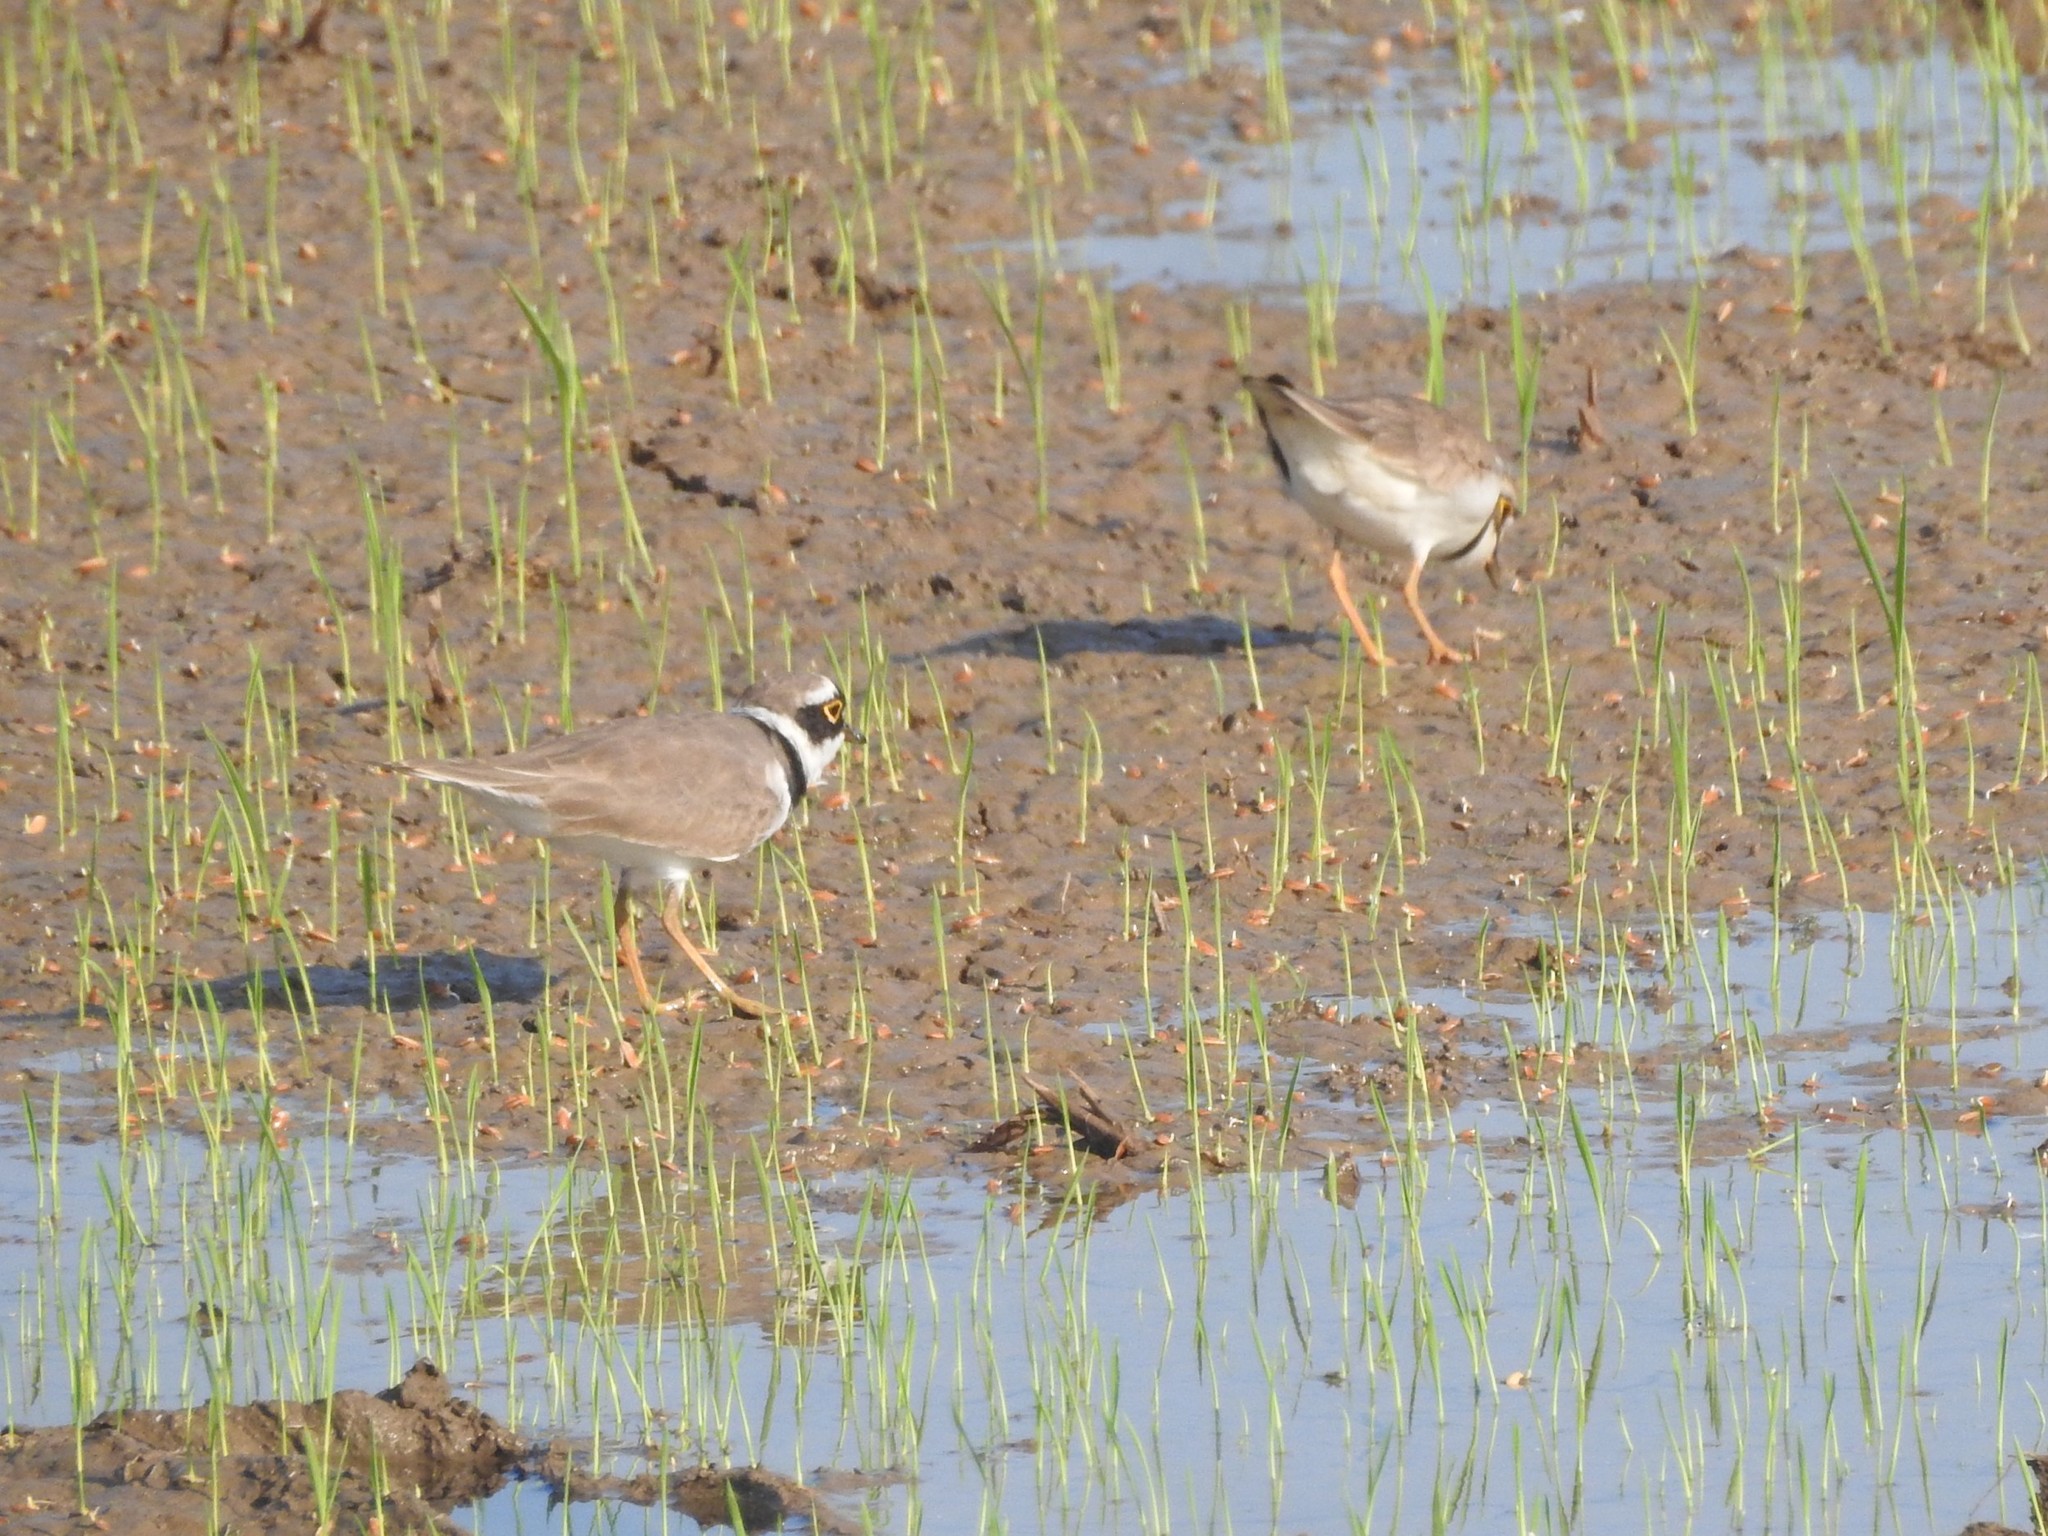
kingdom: Animalia
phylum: Chordata
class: Aves
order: Charadriiformes
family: Charadriidae
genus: Charadrius
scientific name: Charadrius dubius
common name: Little ringed plover
